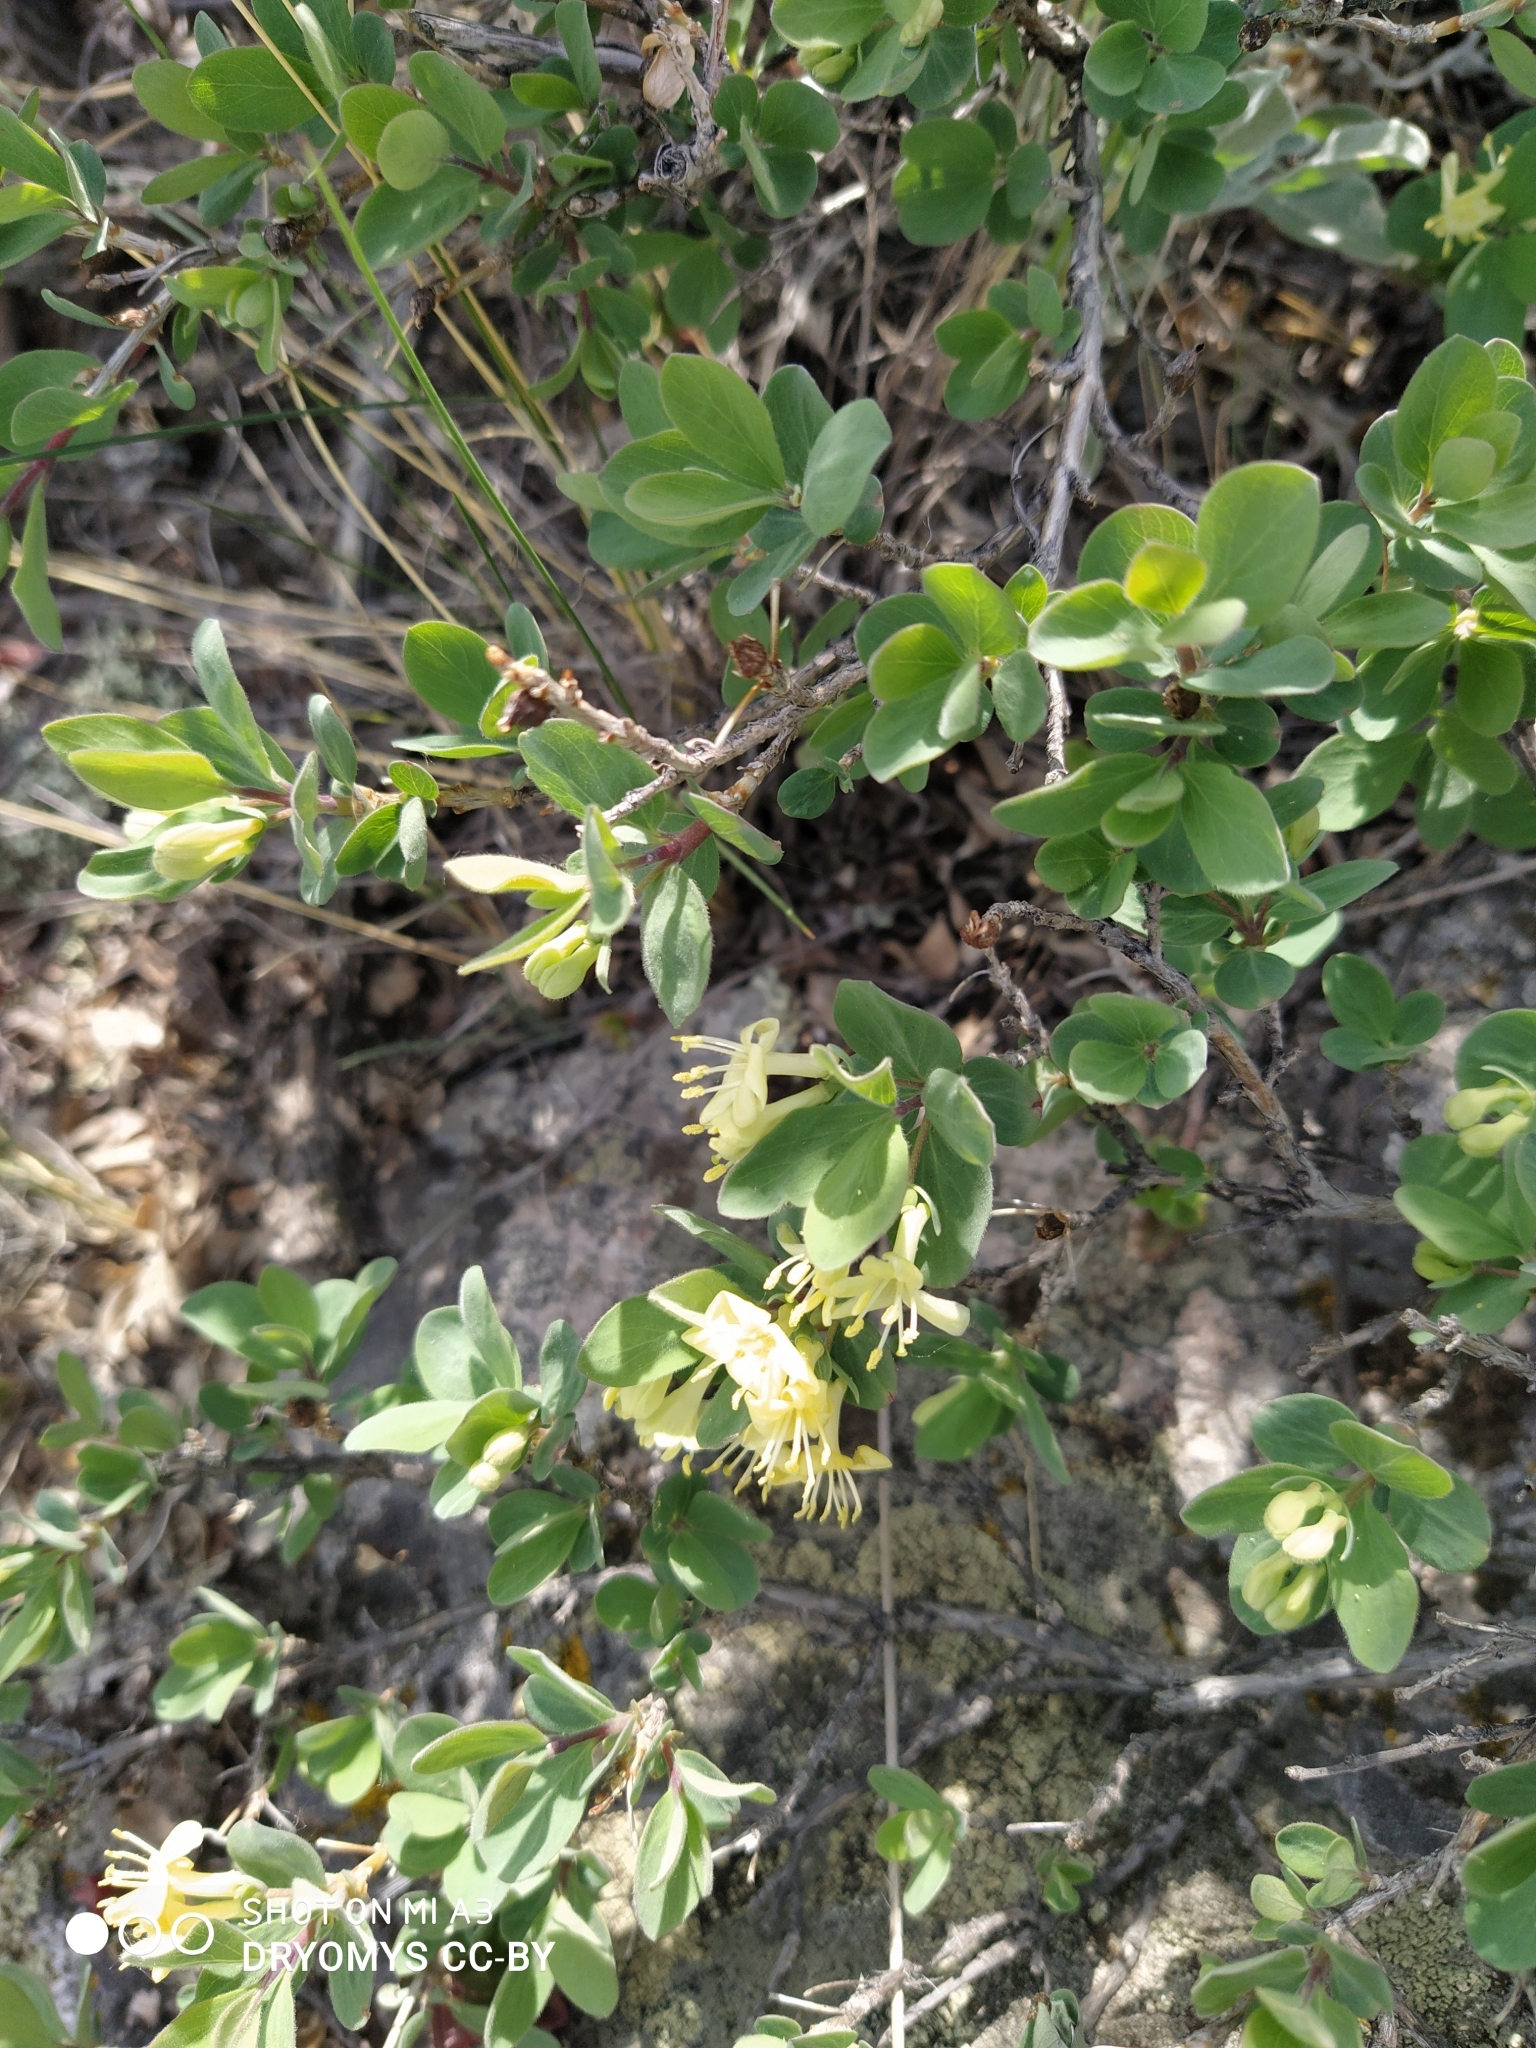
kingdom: Plantae
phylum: Tracheophyta
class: Magnoliopsida
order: Dipsacales
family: Caprifoliaceae
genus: Lonicera
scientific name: Lonicera microphylla
